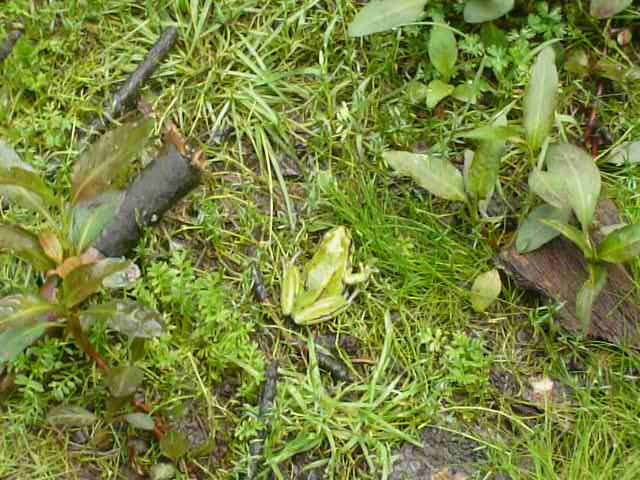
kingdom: Animalia
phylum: Chordata
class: Amphibia
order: Anura
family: Hylidae
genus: Dryophytes
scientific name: Dryophytes plicatus
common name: Ridged treefrog
